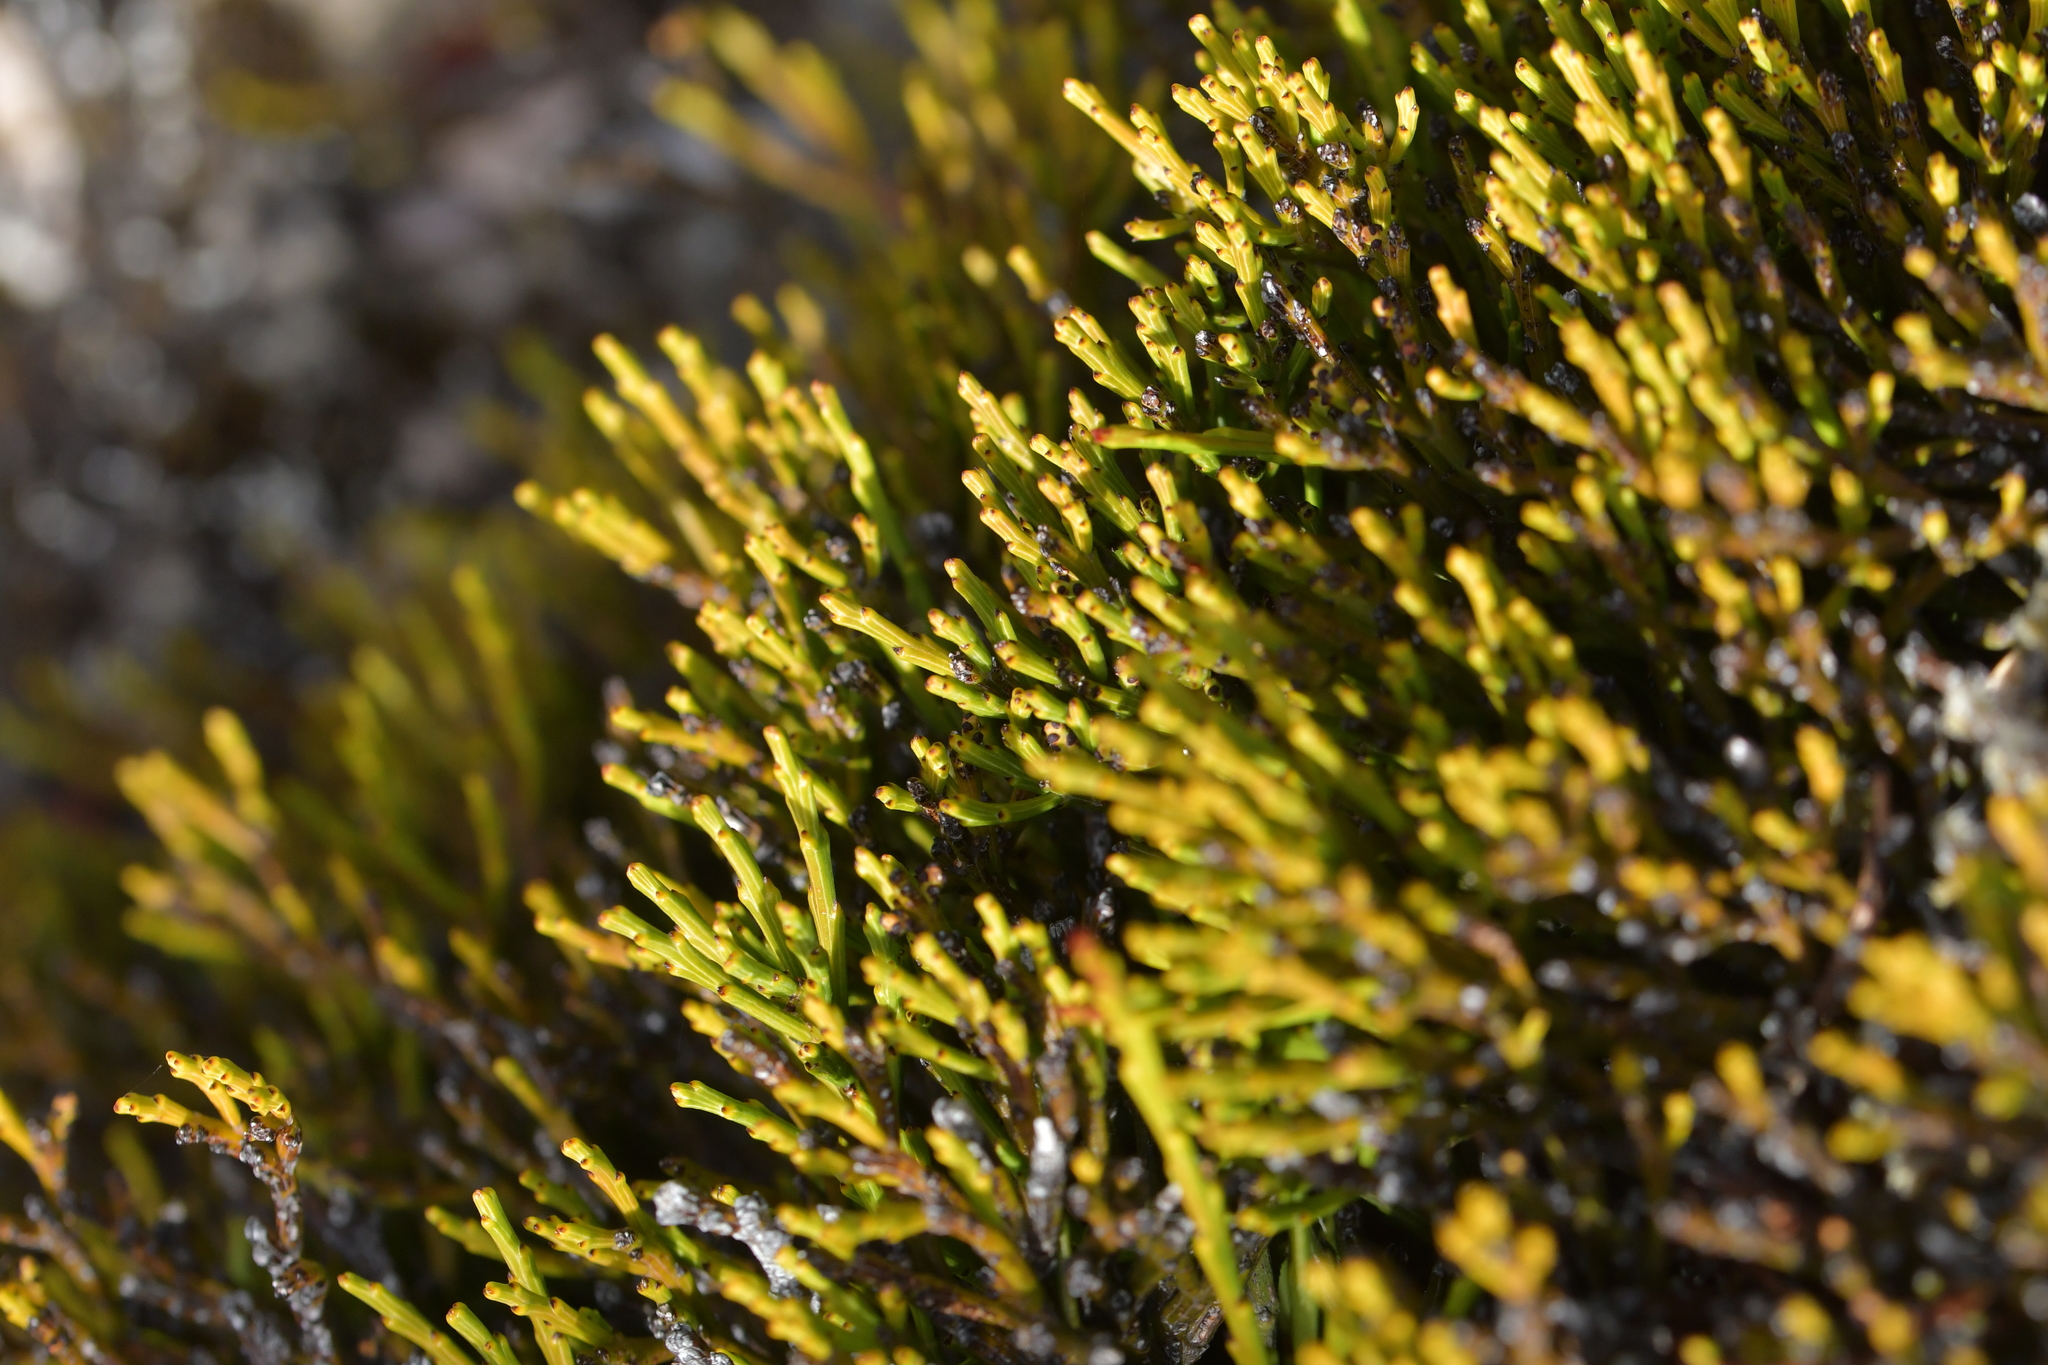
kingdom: Plantae
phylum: Tracheophyta
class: Magnoliopsida
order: Santalales
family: Santalaceae
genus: Exocarpos
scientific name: Exocarpos bidwillii
